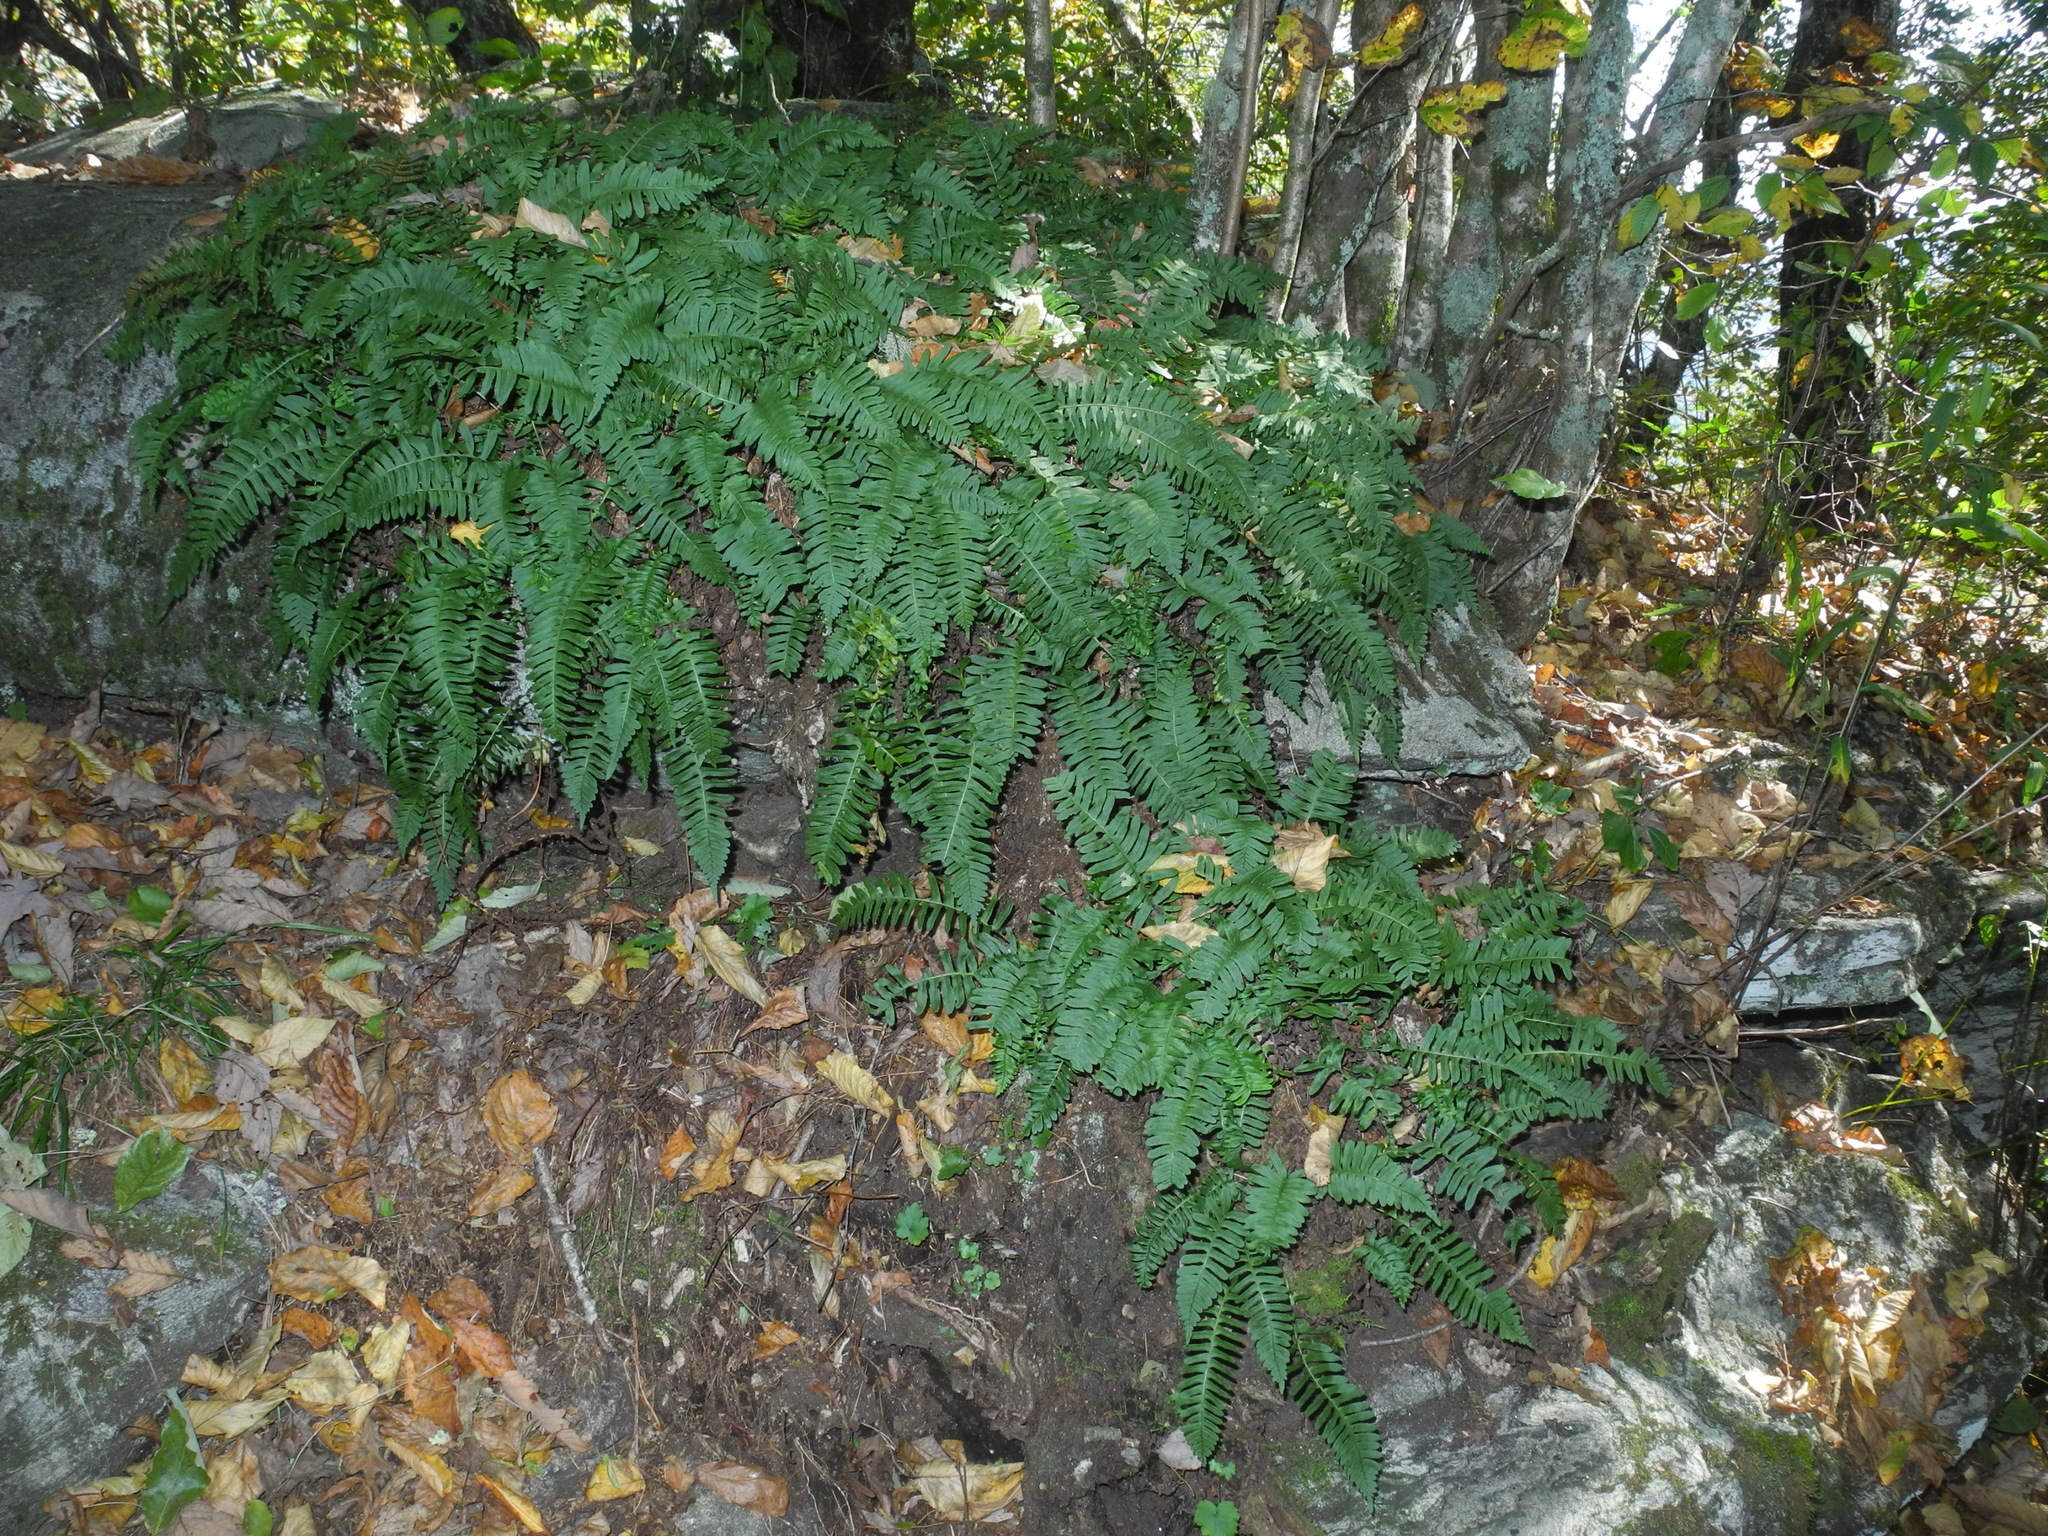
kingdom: Plantae
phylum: Tracheophyta
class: Polypodiopsida
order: Polypodiales
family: Polypodiaceae
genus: Polypodium
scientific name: Polypodium virginianum
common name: American wall fern
